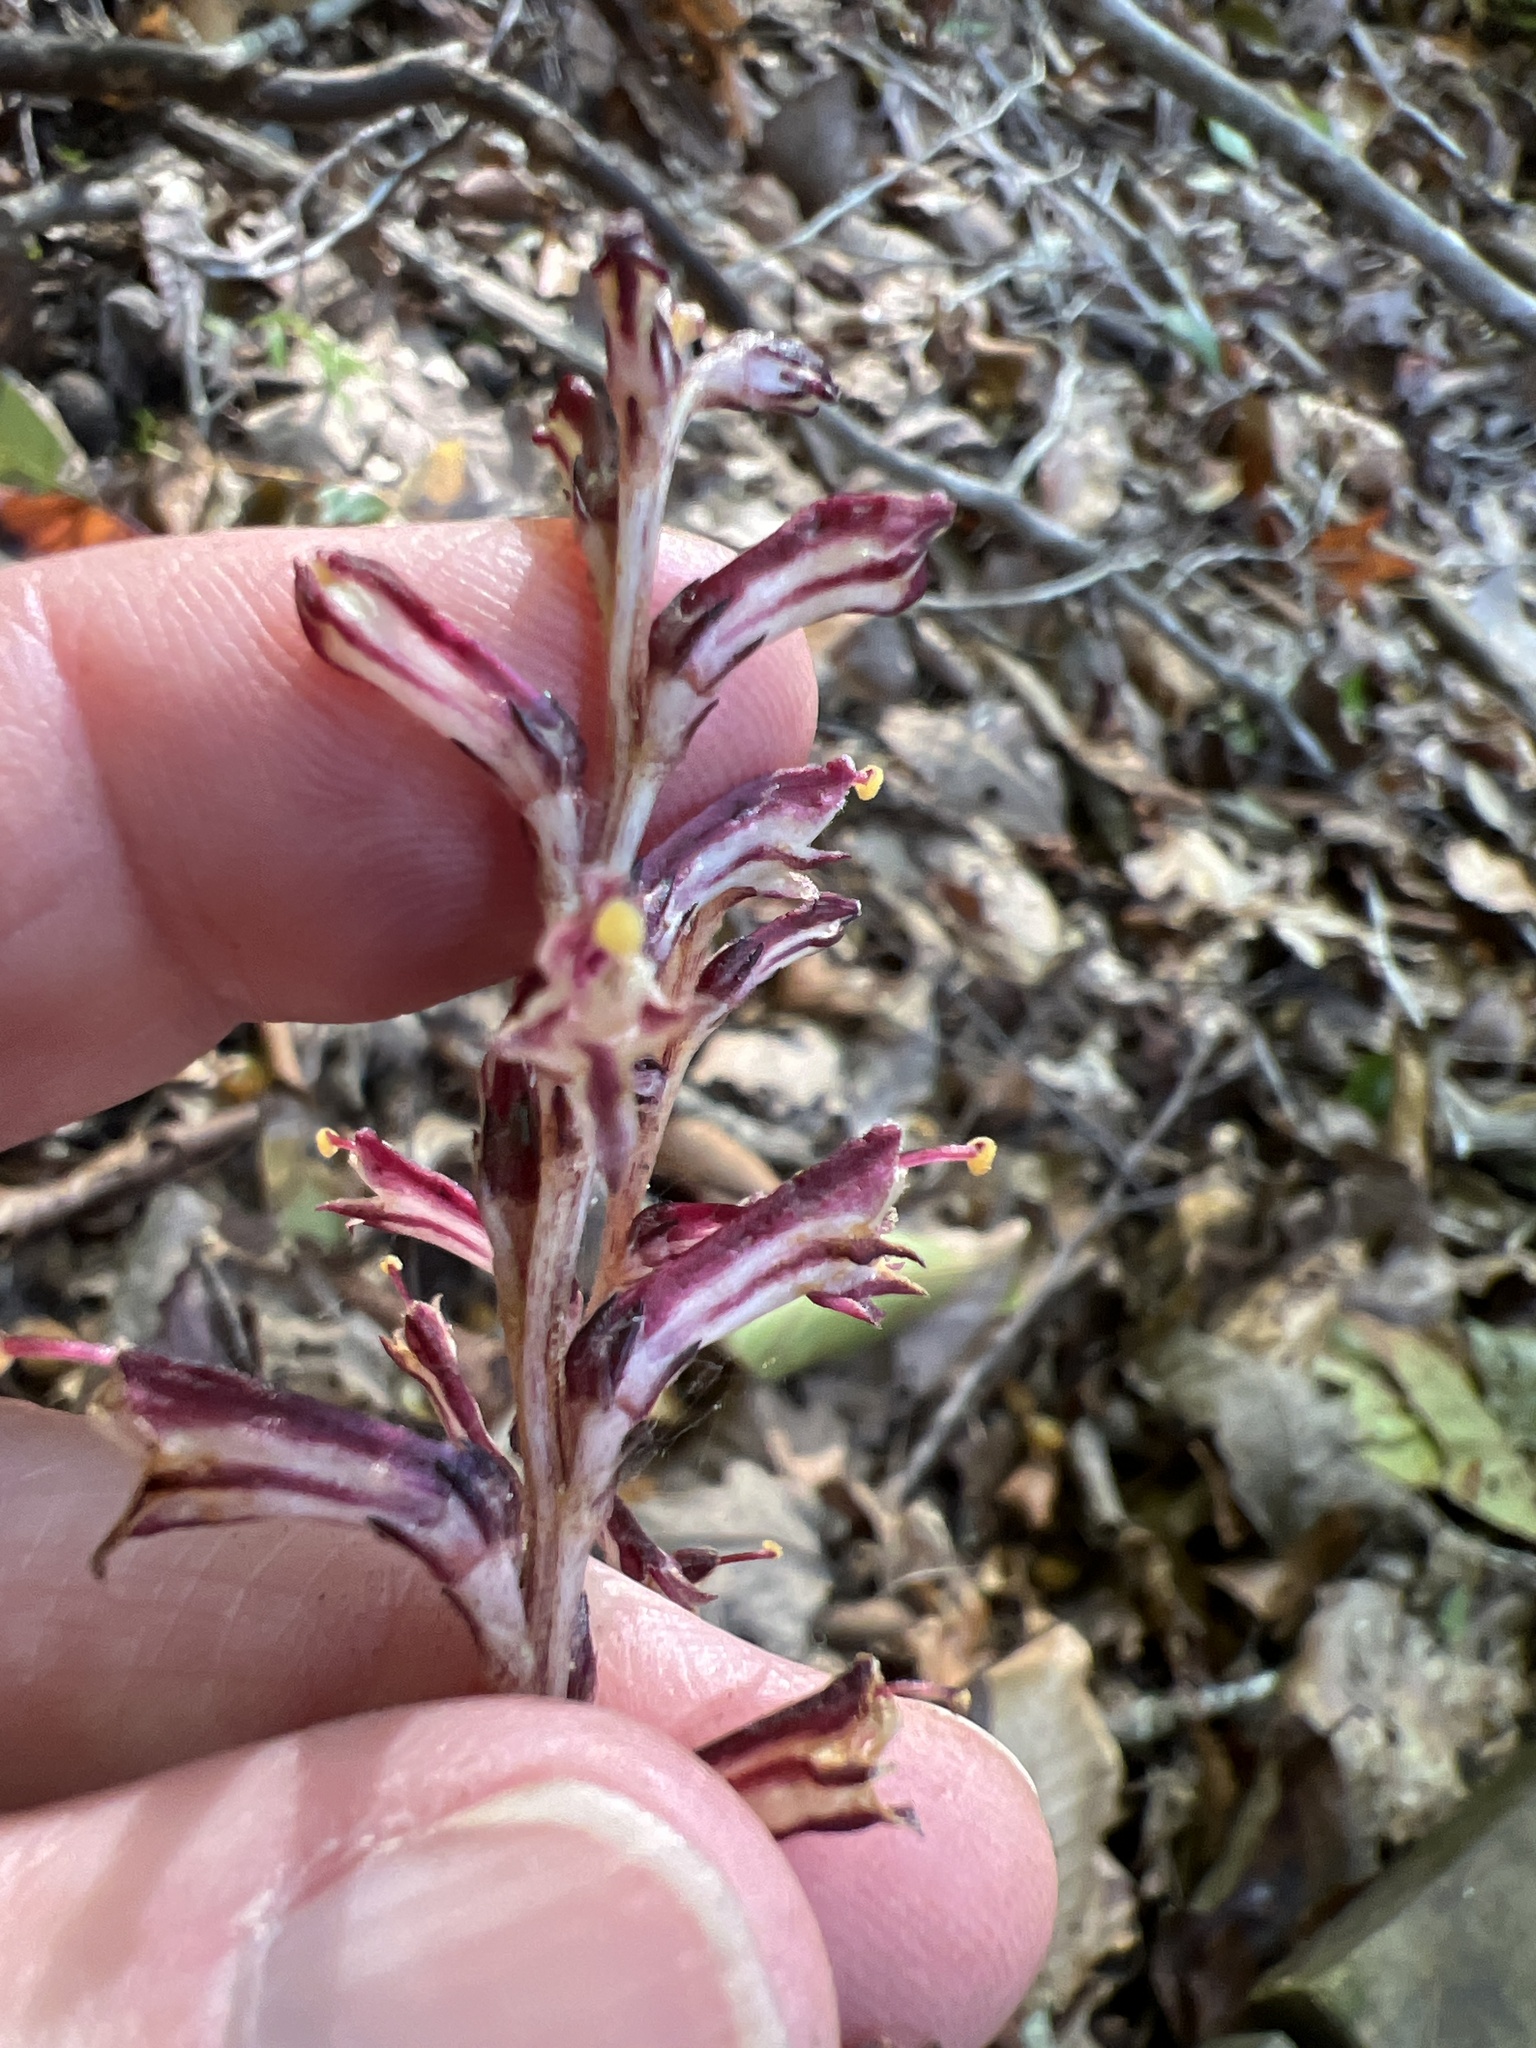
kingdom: Plantae
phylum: Tracheophyta
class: Magnoliopsida
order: Lamiales
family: Orobanchaceae
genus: Epifagus
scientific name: Epifagus virginiana
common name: Beechdrops
